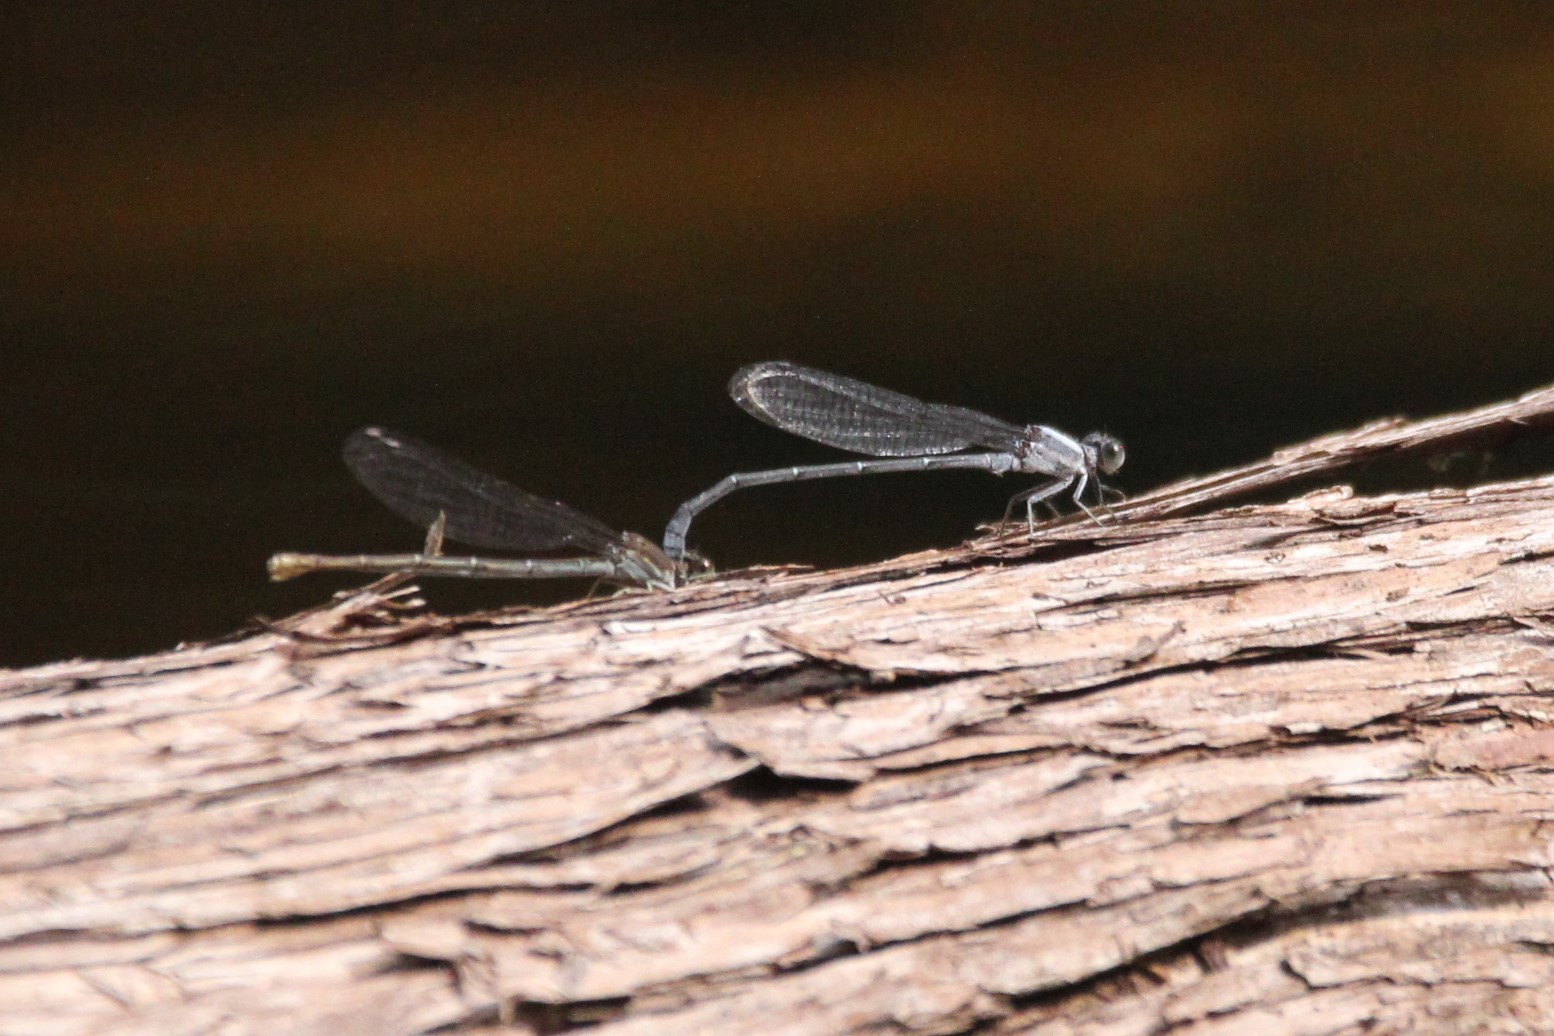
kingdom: Animalia
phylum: Arthropoda
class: Insecta
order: Odonata
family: Coenagrionidae
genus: Argia
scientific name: Argia moesta
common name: Powdered dancer
